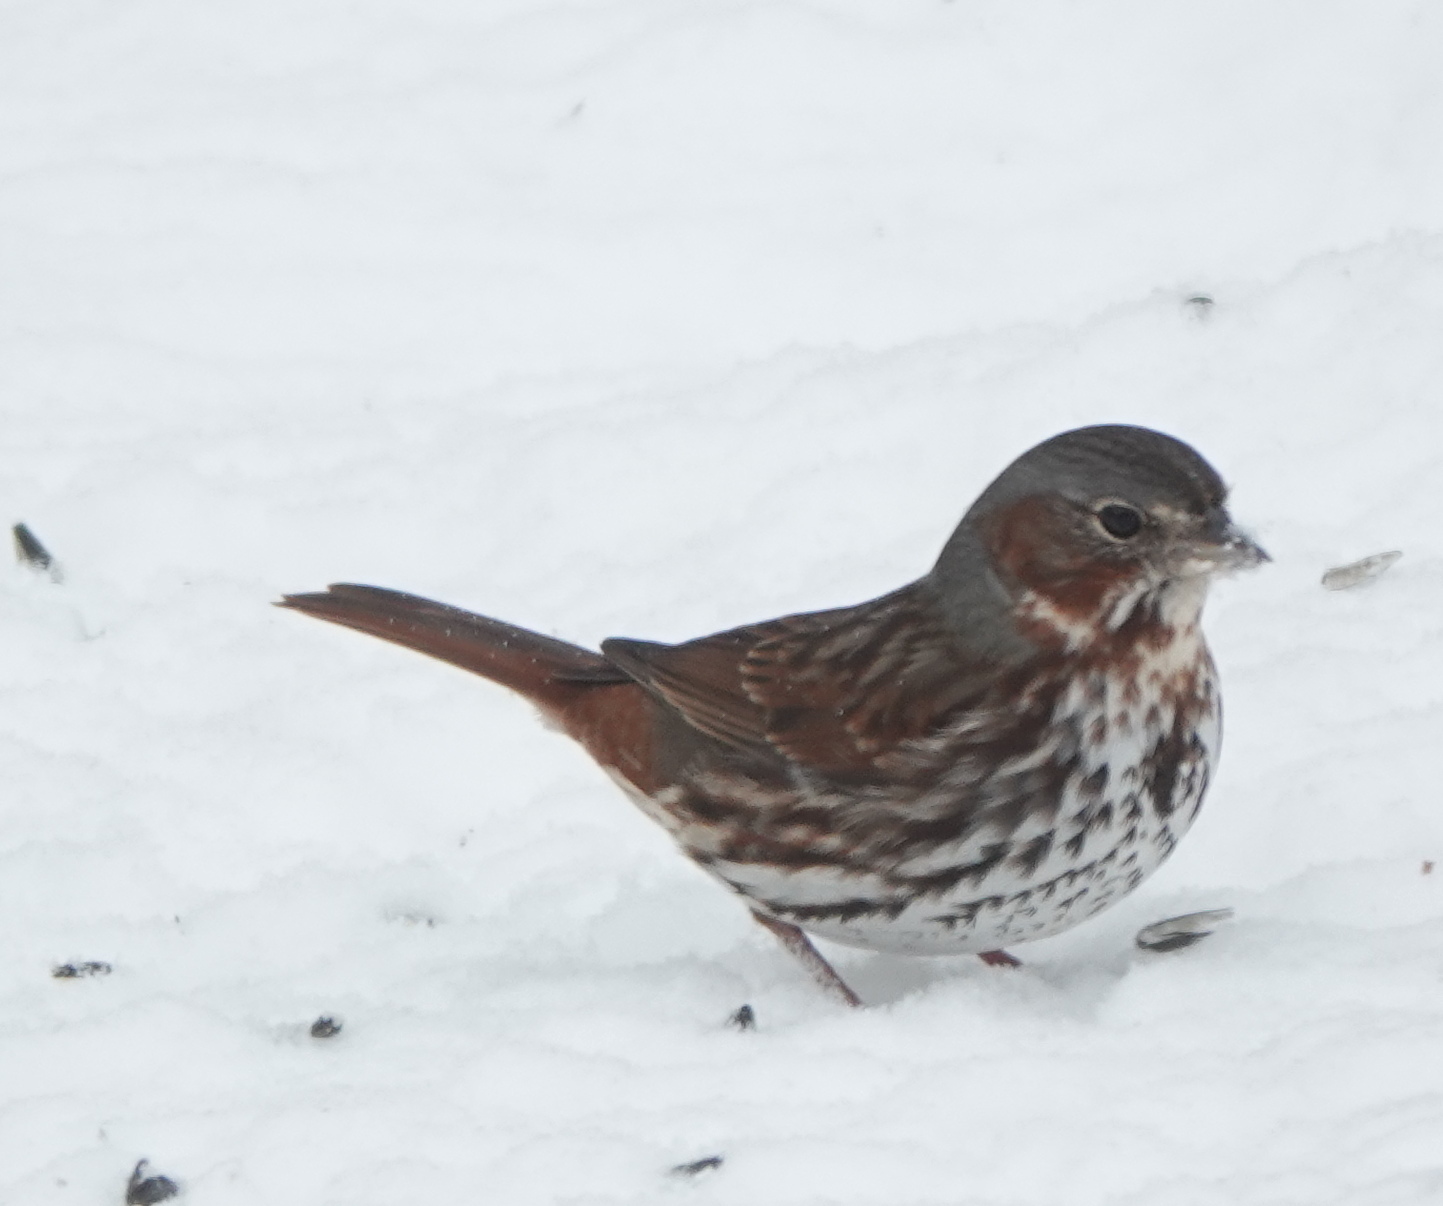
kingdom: Animalia
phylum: Chordata
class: Aves
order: Passeriformes
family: Passerellidae
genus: Passerella
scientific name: Passerella iliaca
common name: Fox sparrow
